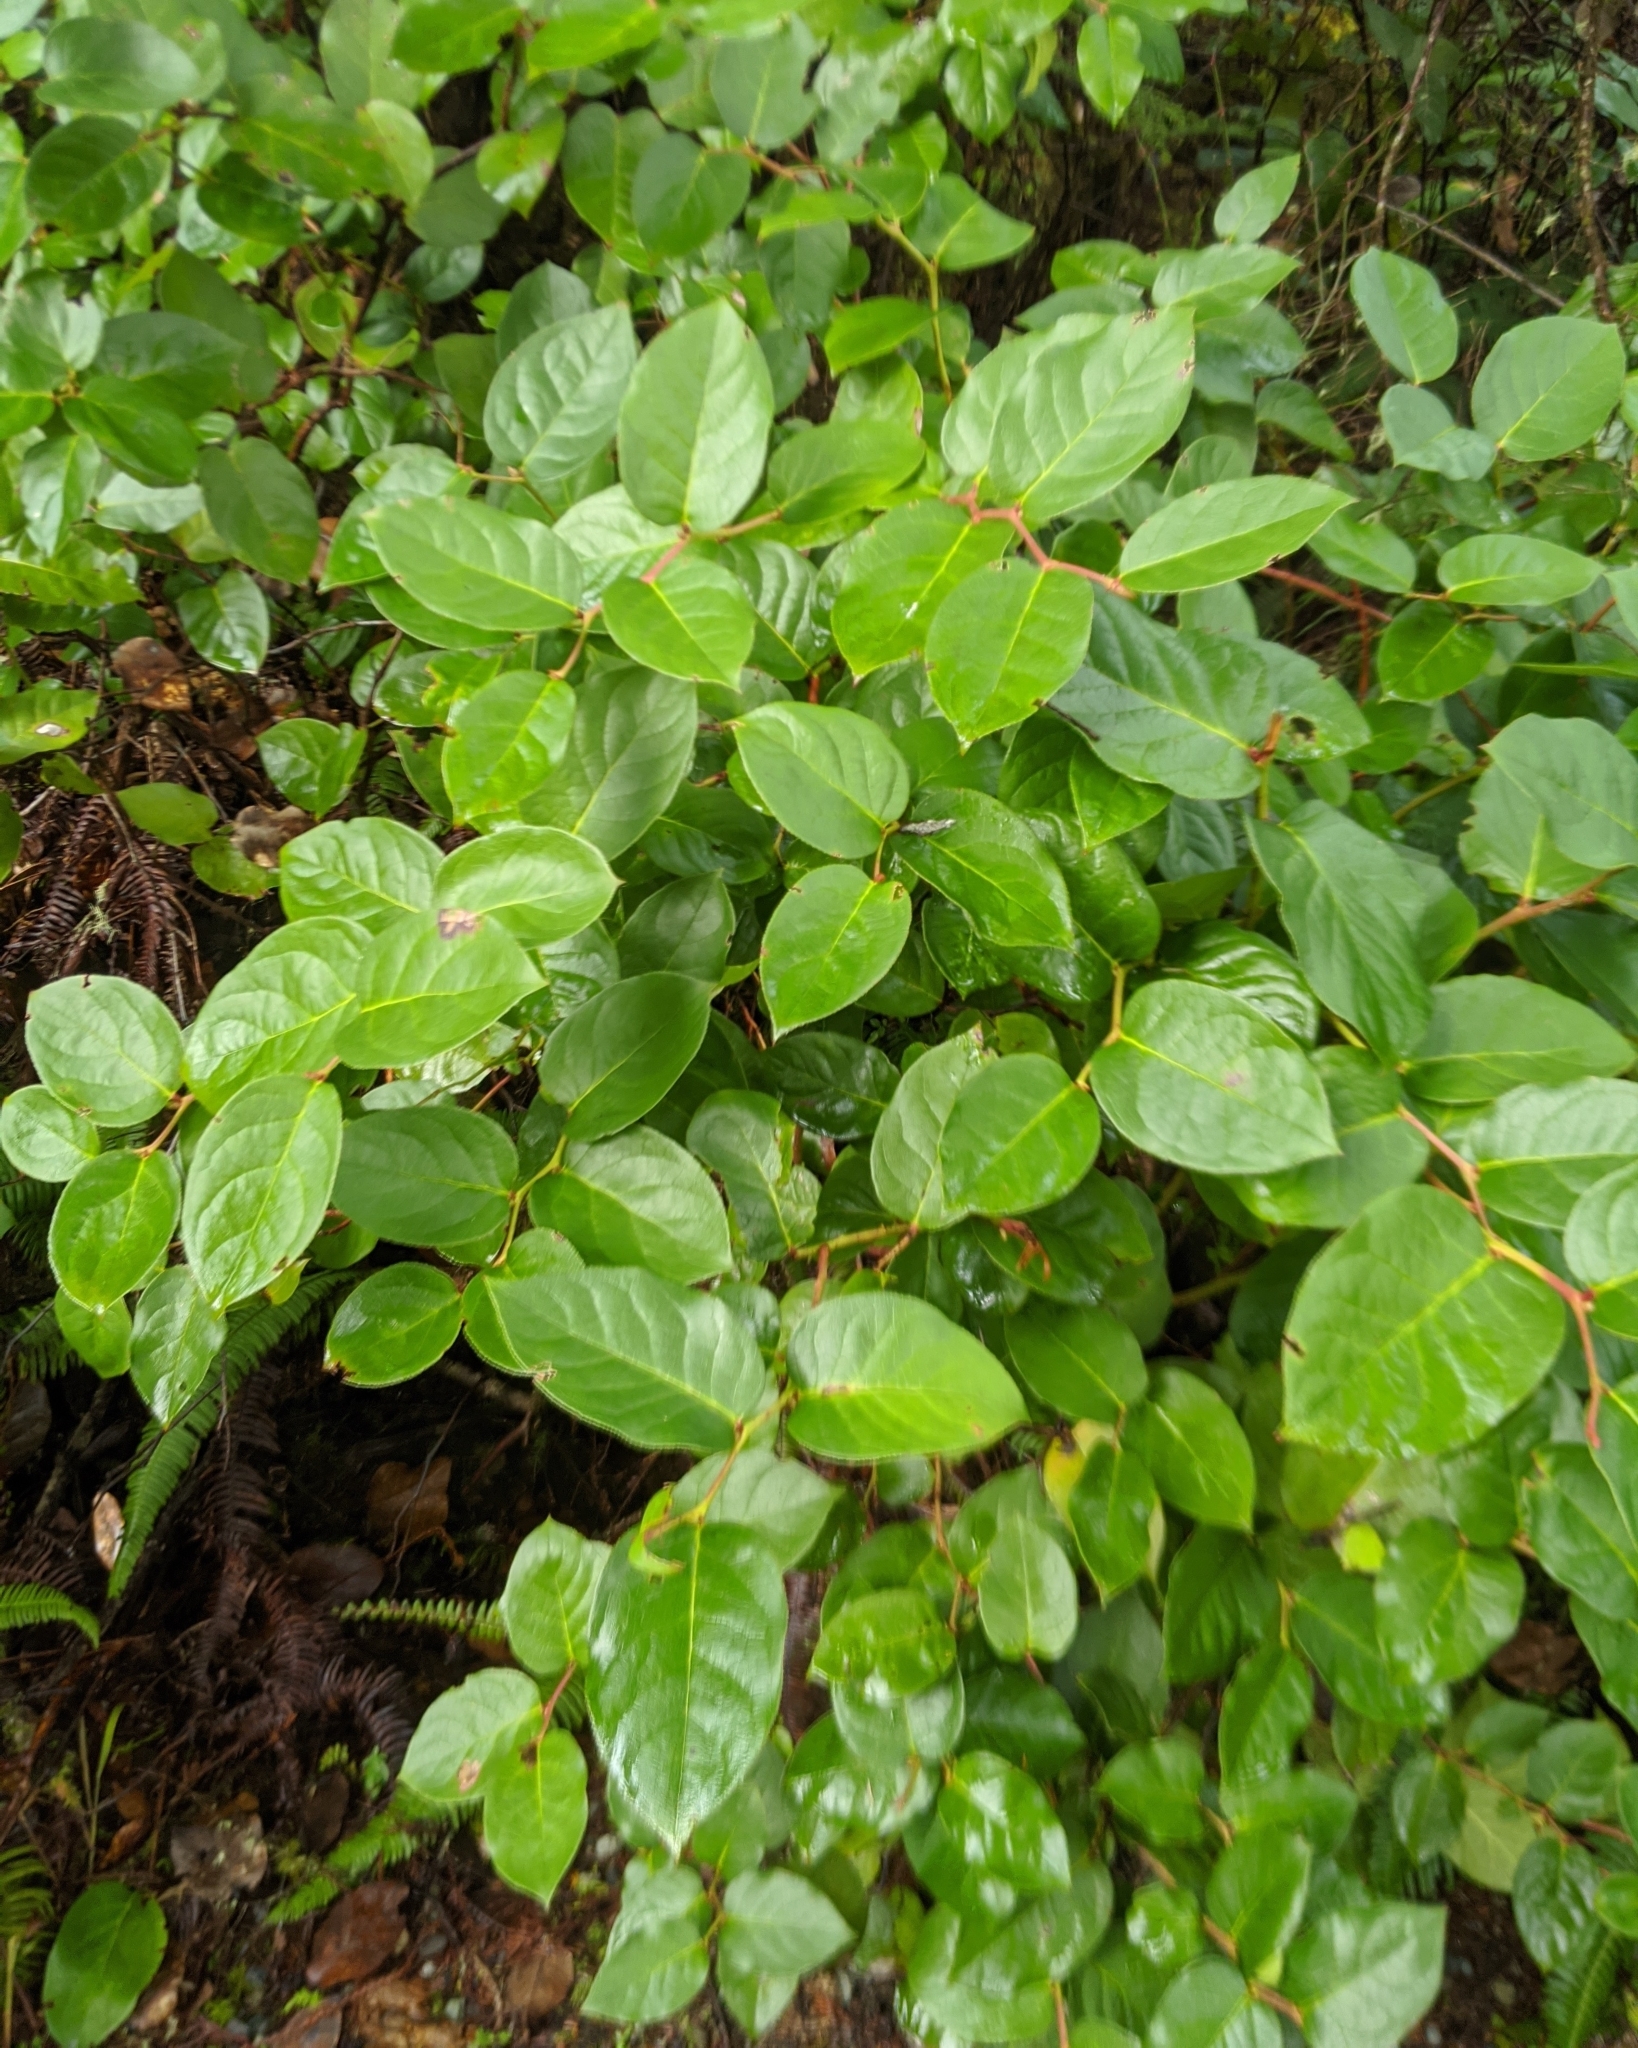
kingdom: Plantae
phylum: Tracheophyta
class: Magnoliopsida
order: Ericales
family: Ericaceae
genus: Gaultheria
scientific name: Gaultheria shallon
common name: Shallon
